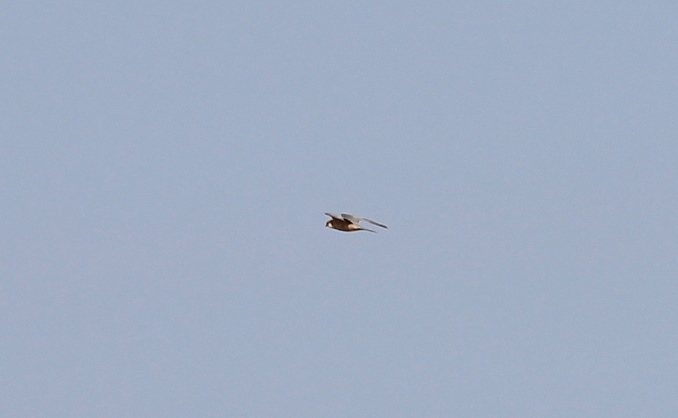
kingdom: Animalia
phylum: Chordata
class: Aves
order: Falconiformes
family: Falconidae
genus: Falco
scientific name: Falco vespertinus
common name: Red-footed falcon
